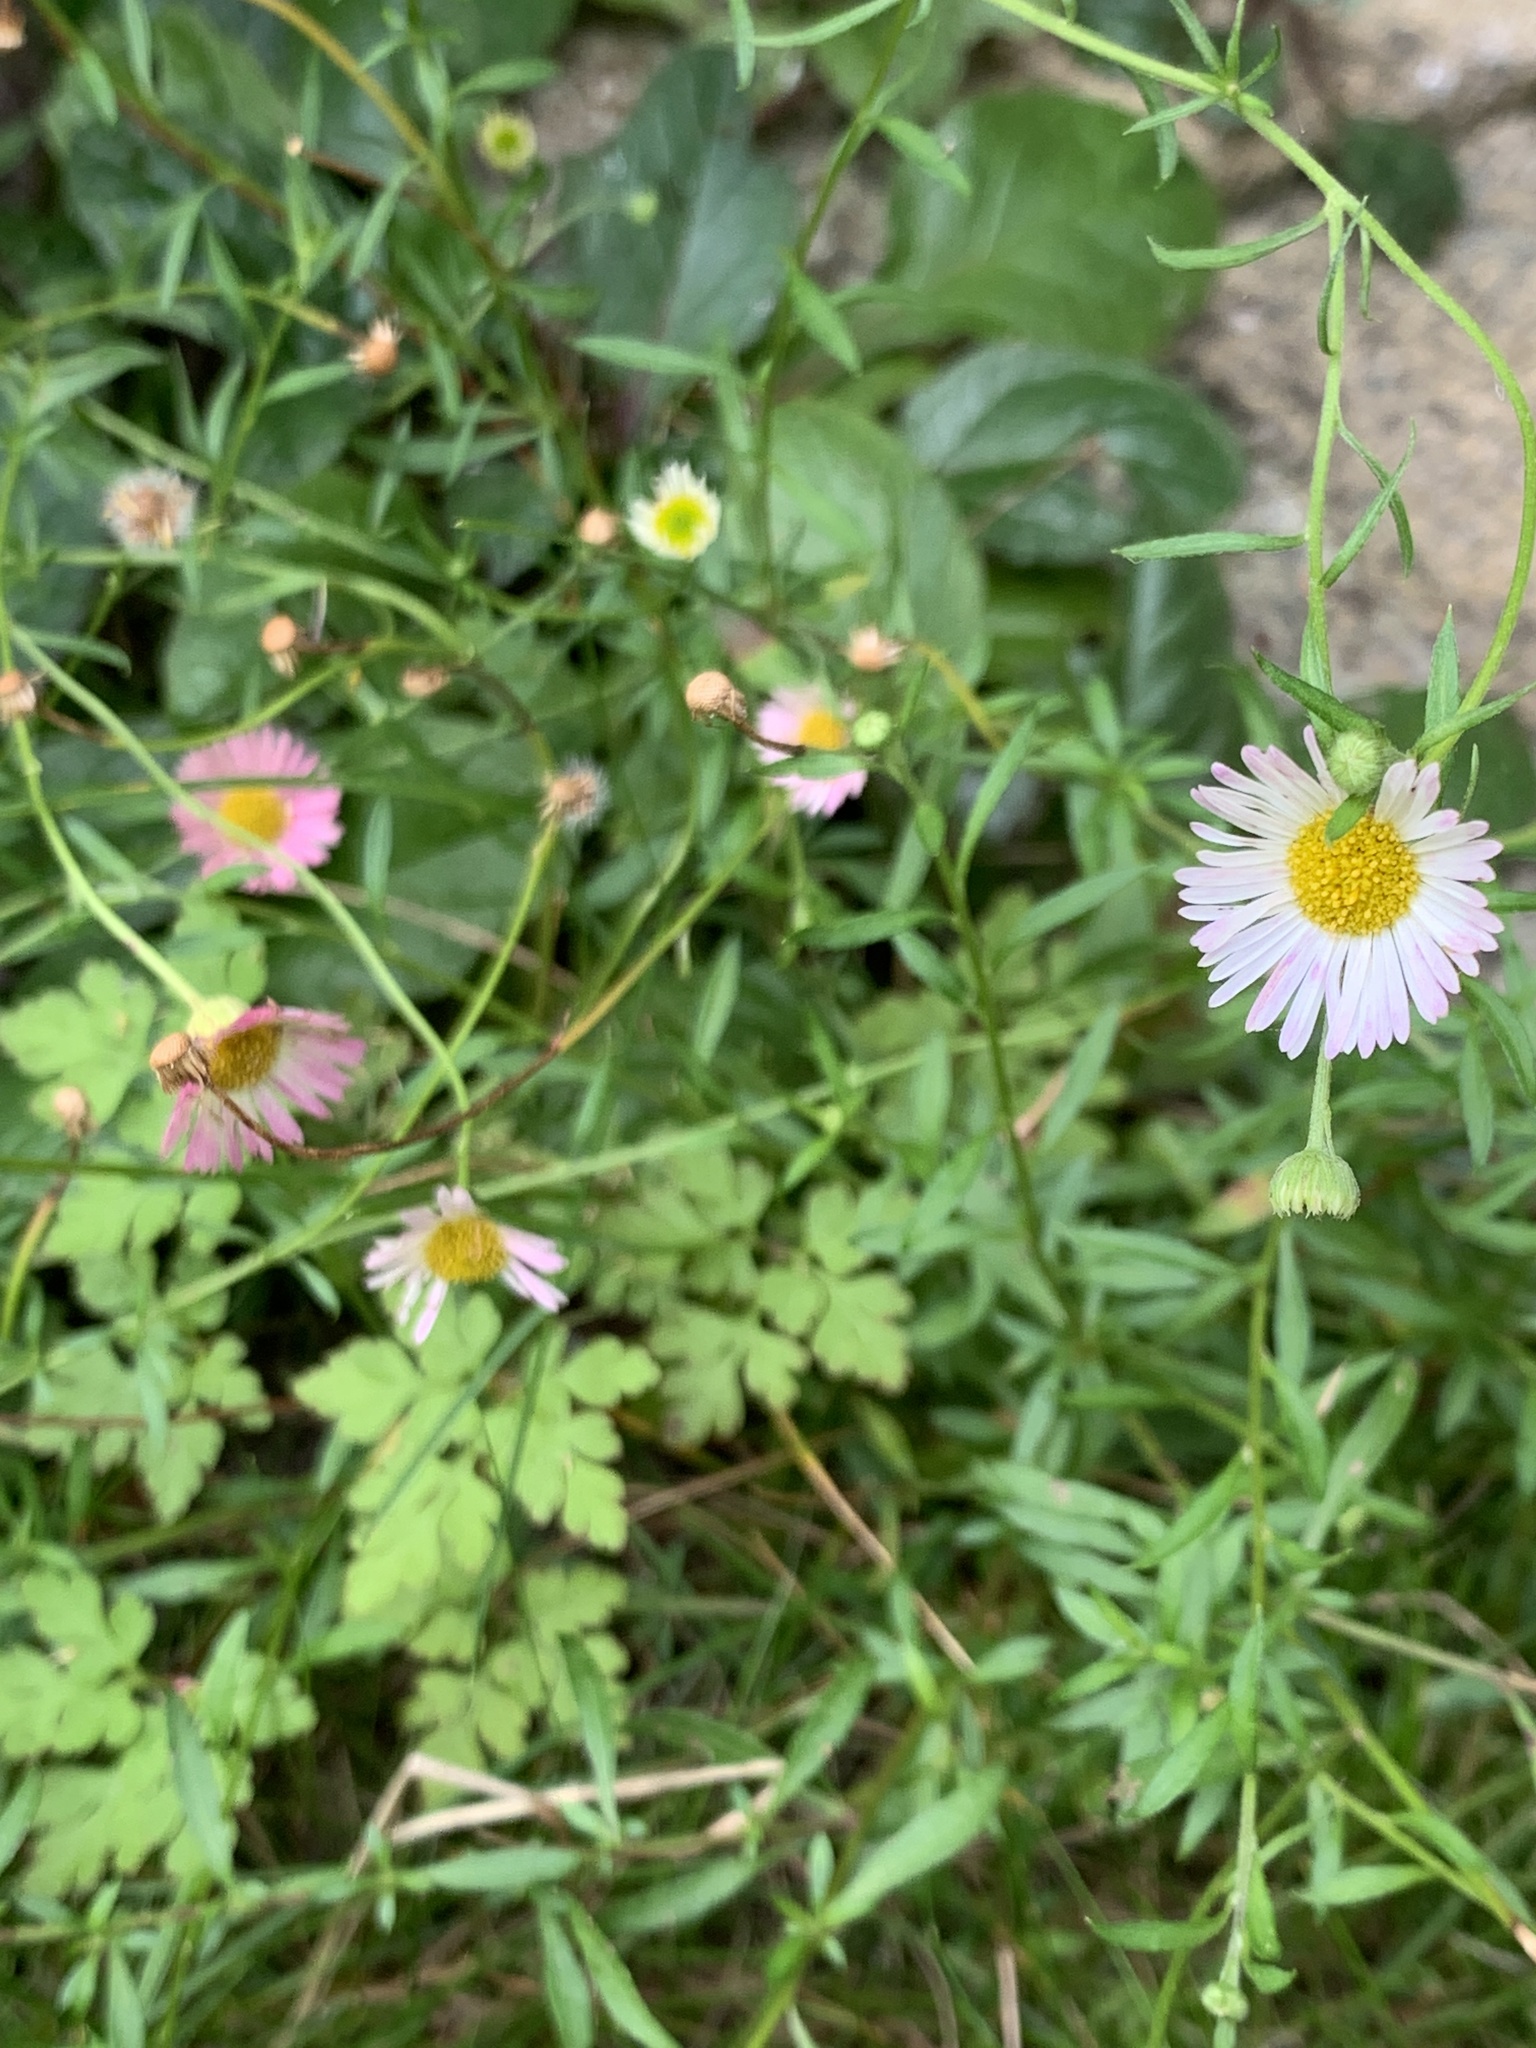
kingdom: Plantae
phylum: Tracheophyta
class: Magnoliopsida
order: Asterales
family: Asteraceae
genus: Erigeron
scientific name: Erigeron karvinskianus
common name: Mexican fleabane
